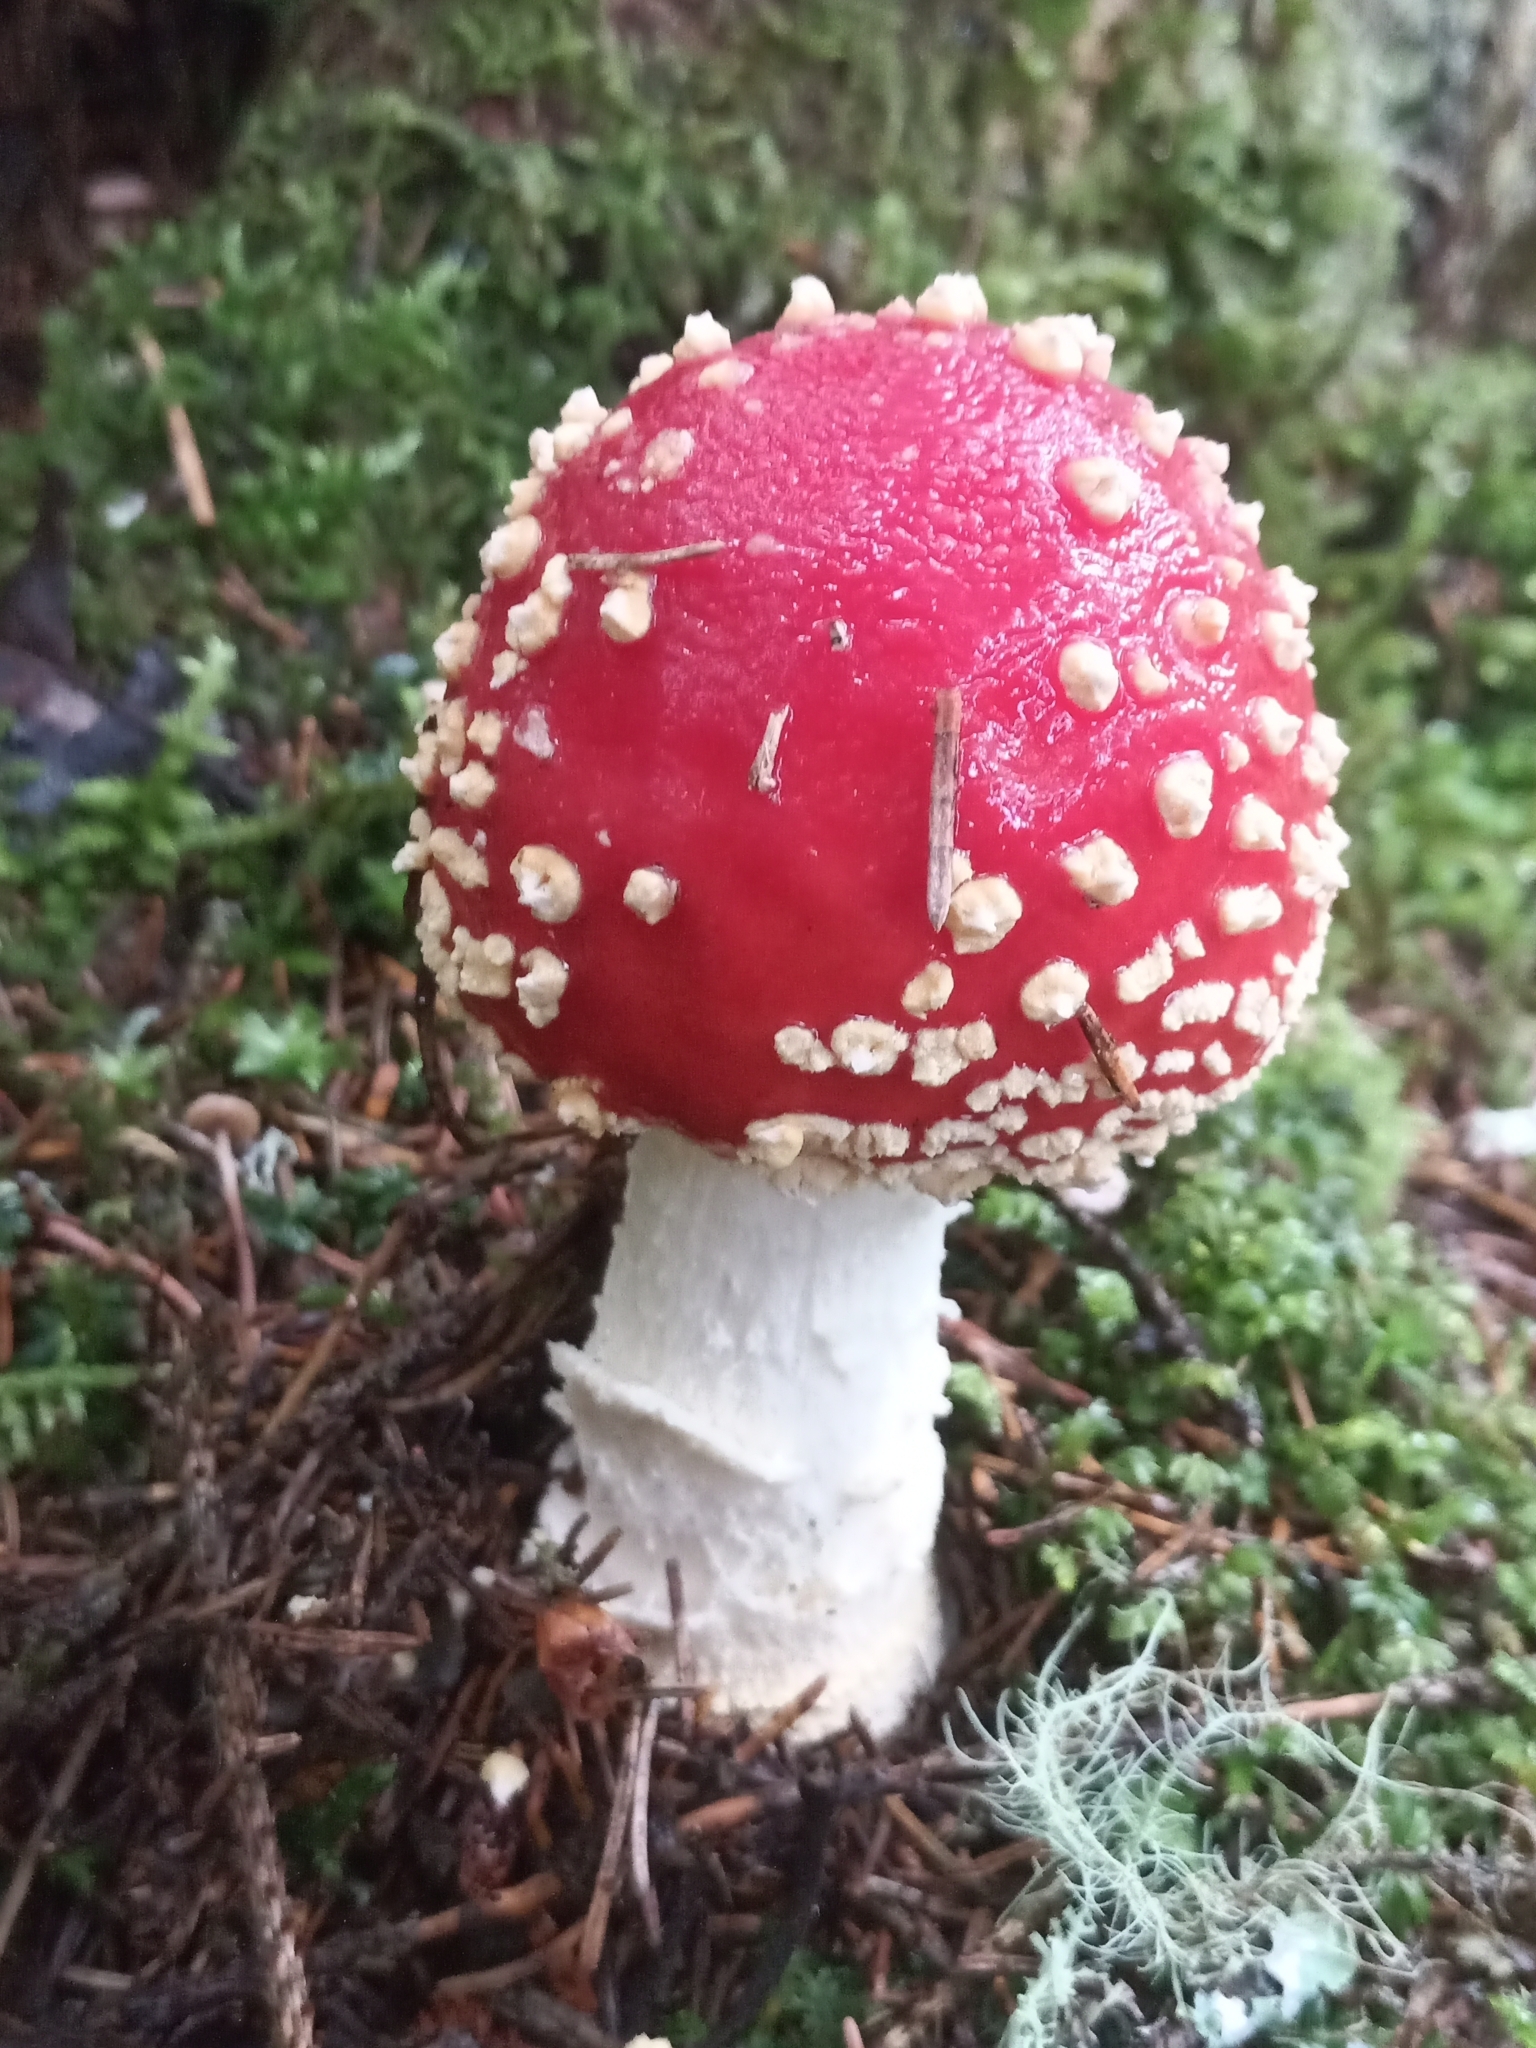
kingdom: Fungi
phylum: Basidiomycota
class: Agaricomycetes
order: Agaricales
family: Amanitaceae
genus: Amanita
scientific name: Amanita muscaria
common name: Fly agaric
